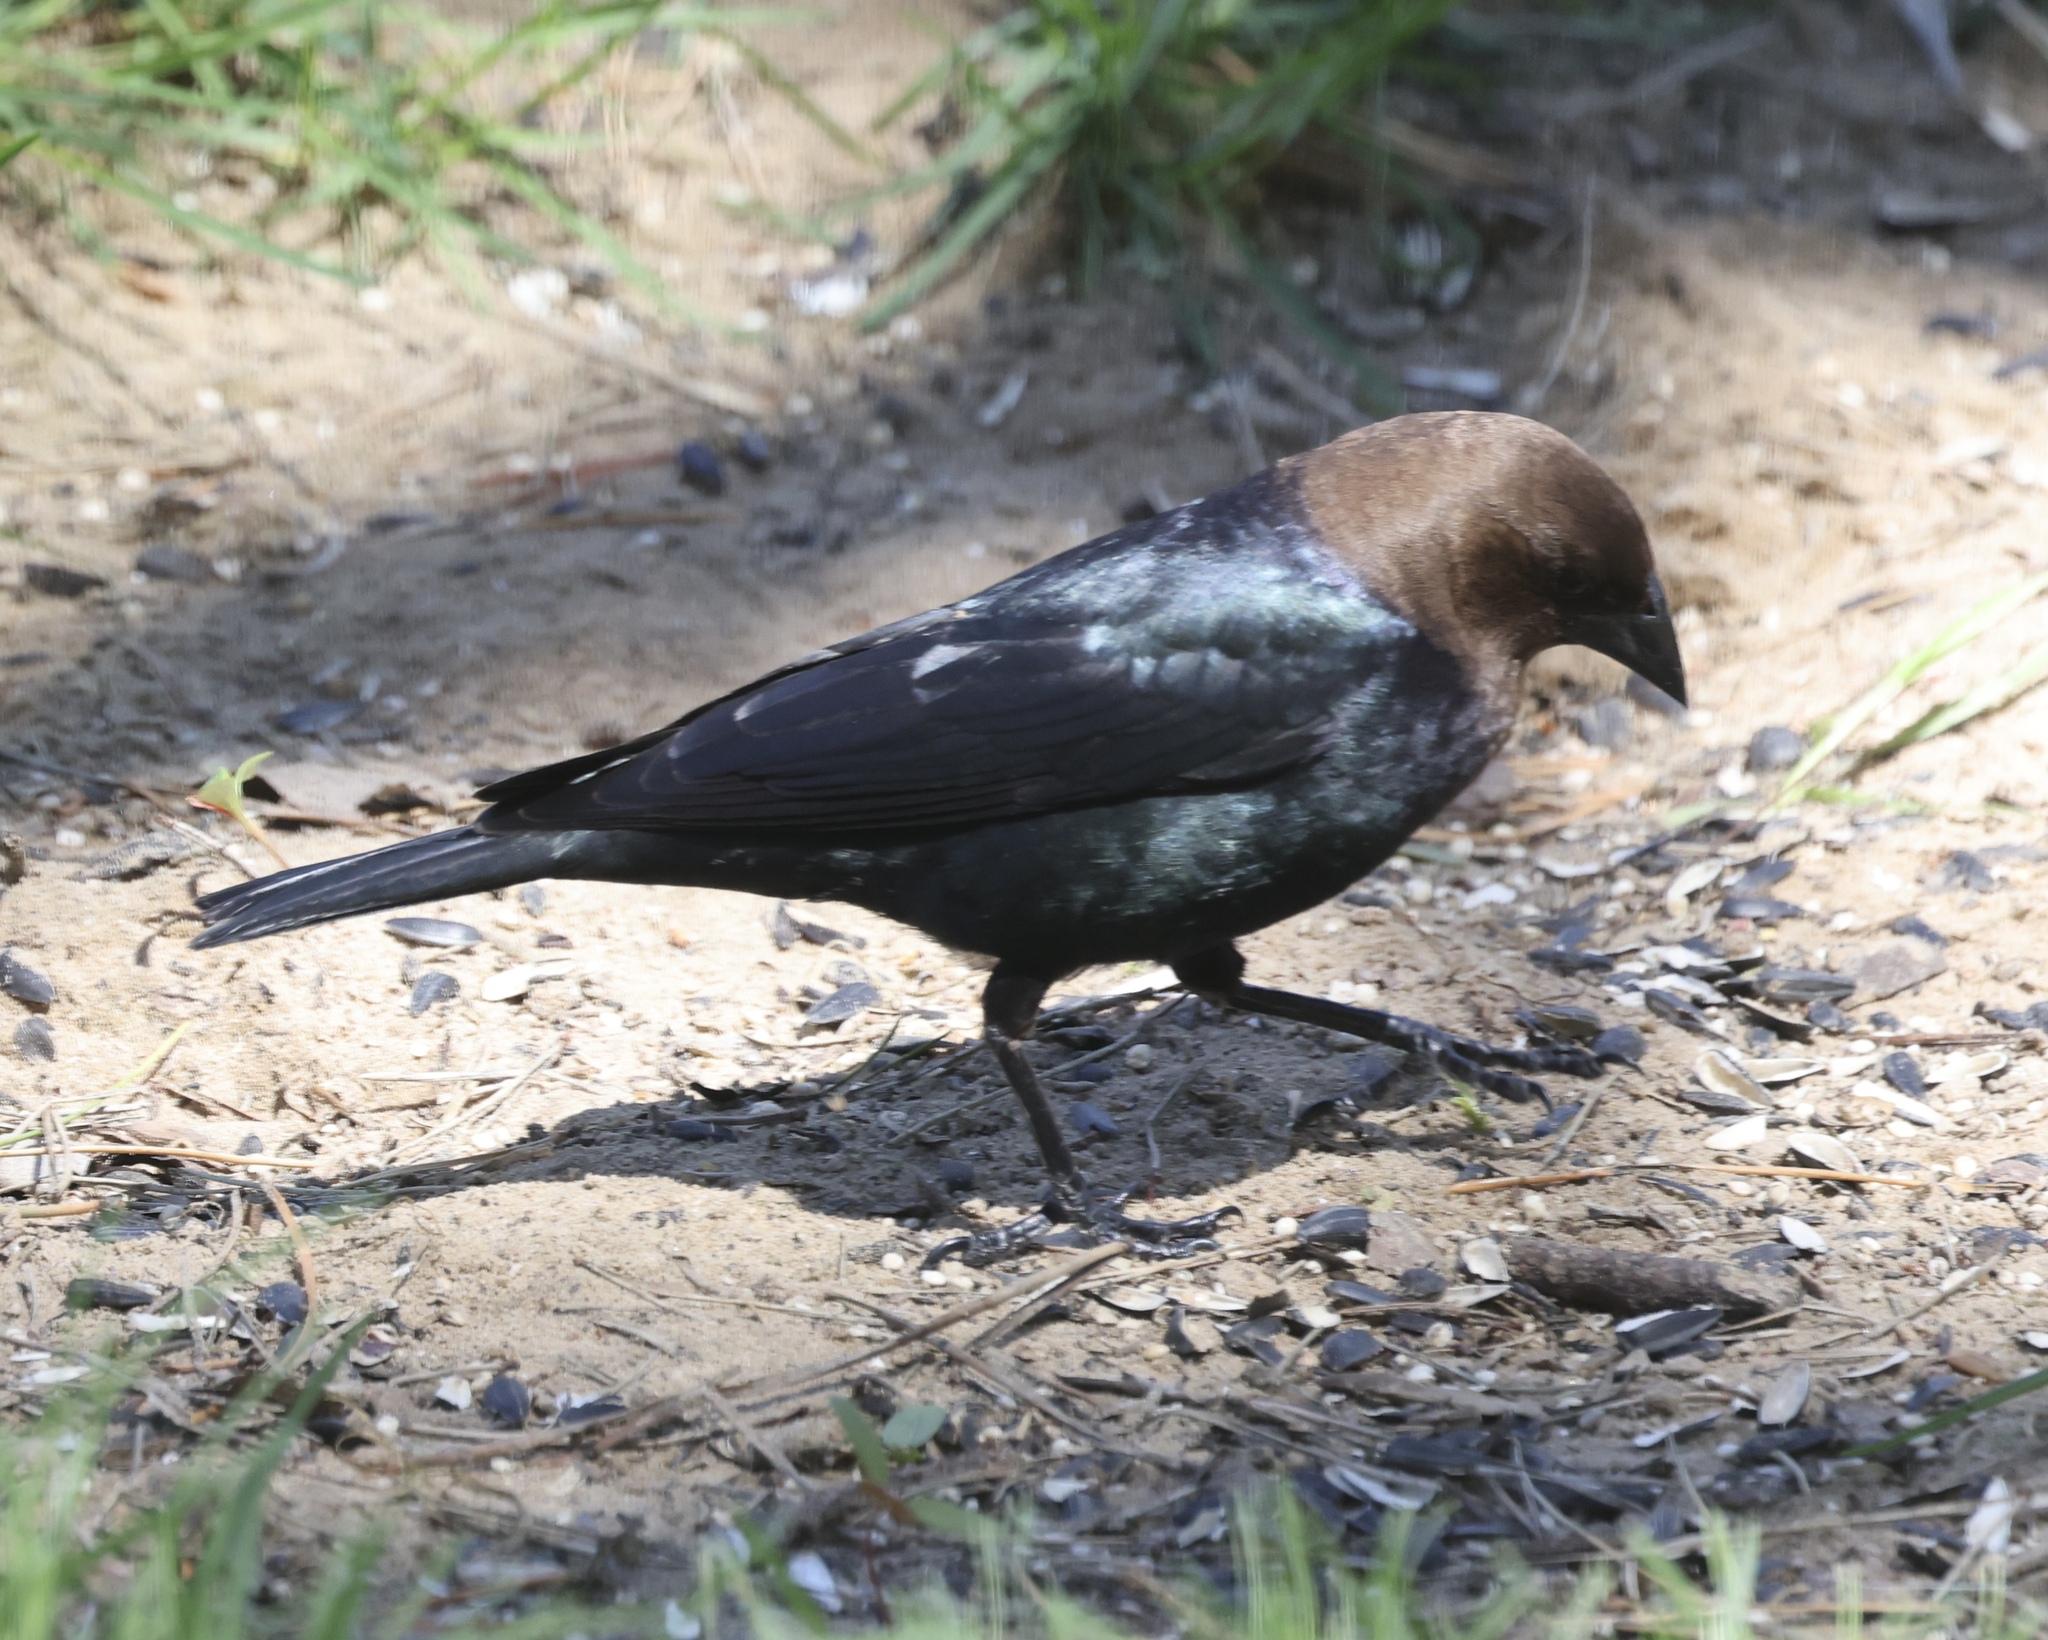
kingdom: Animalia
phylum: Chordata
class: Aves
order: Passeriformes
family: Icteridae
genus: Molothrus
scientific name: Molothrus ater
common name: Brown-headed cowbird
